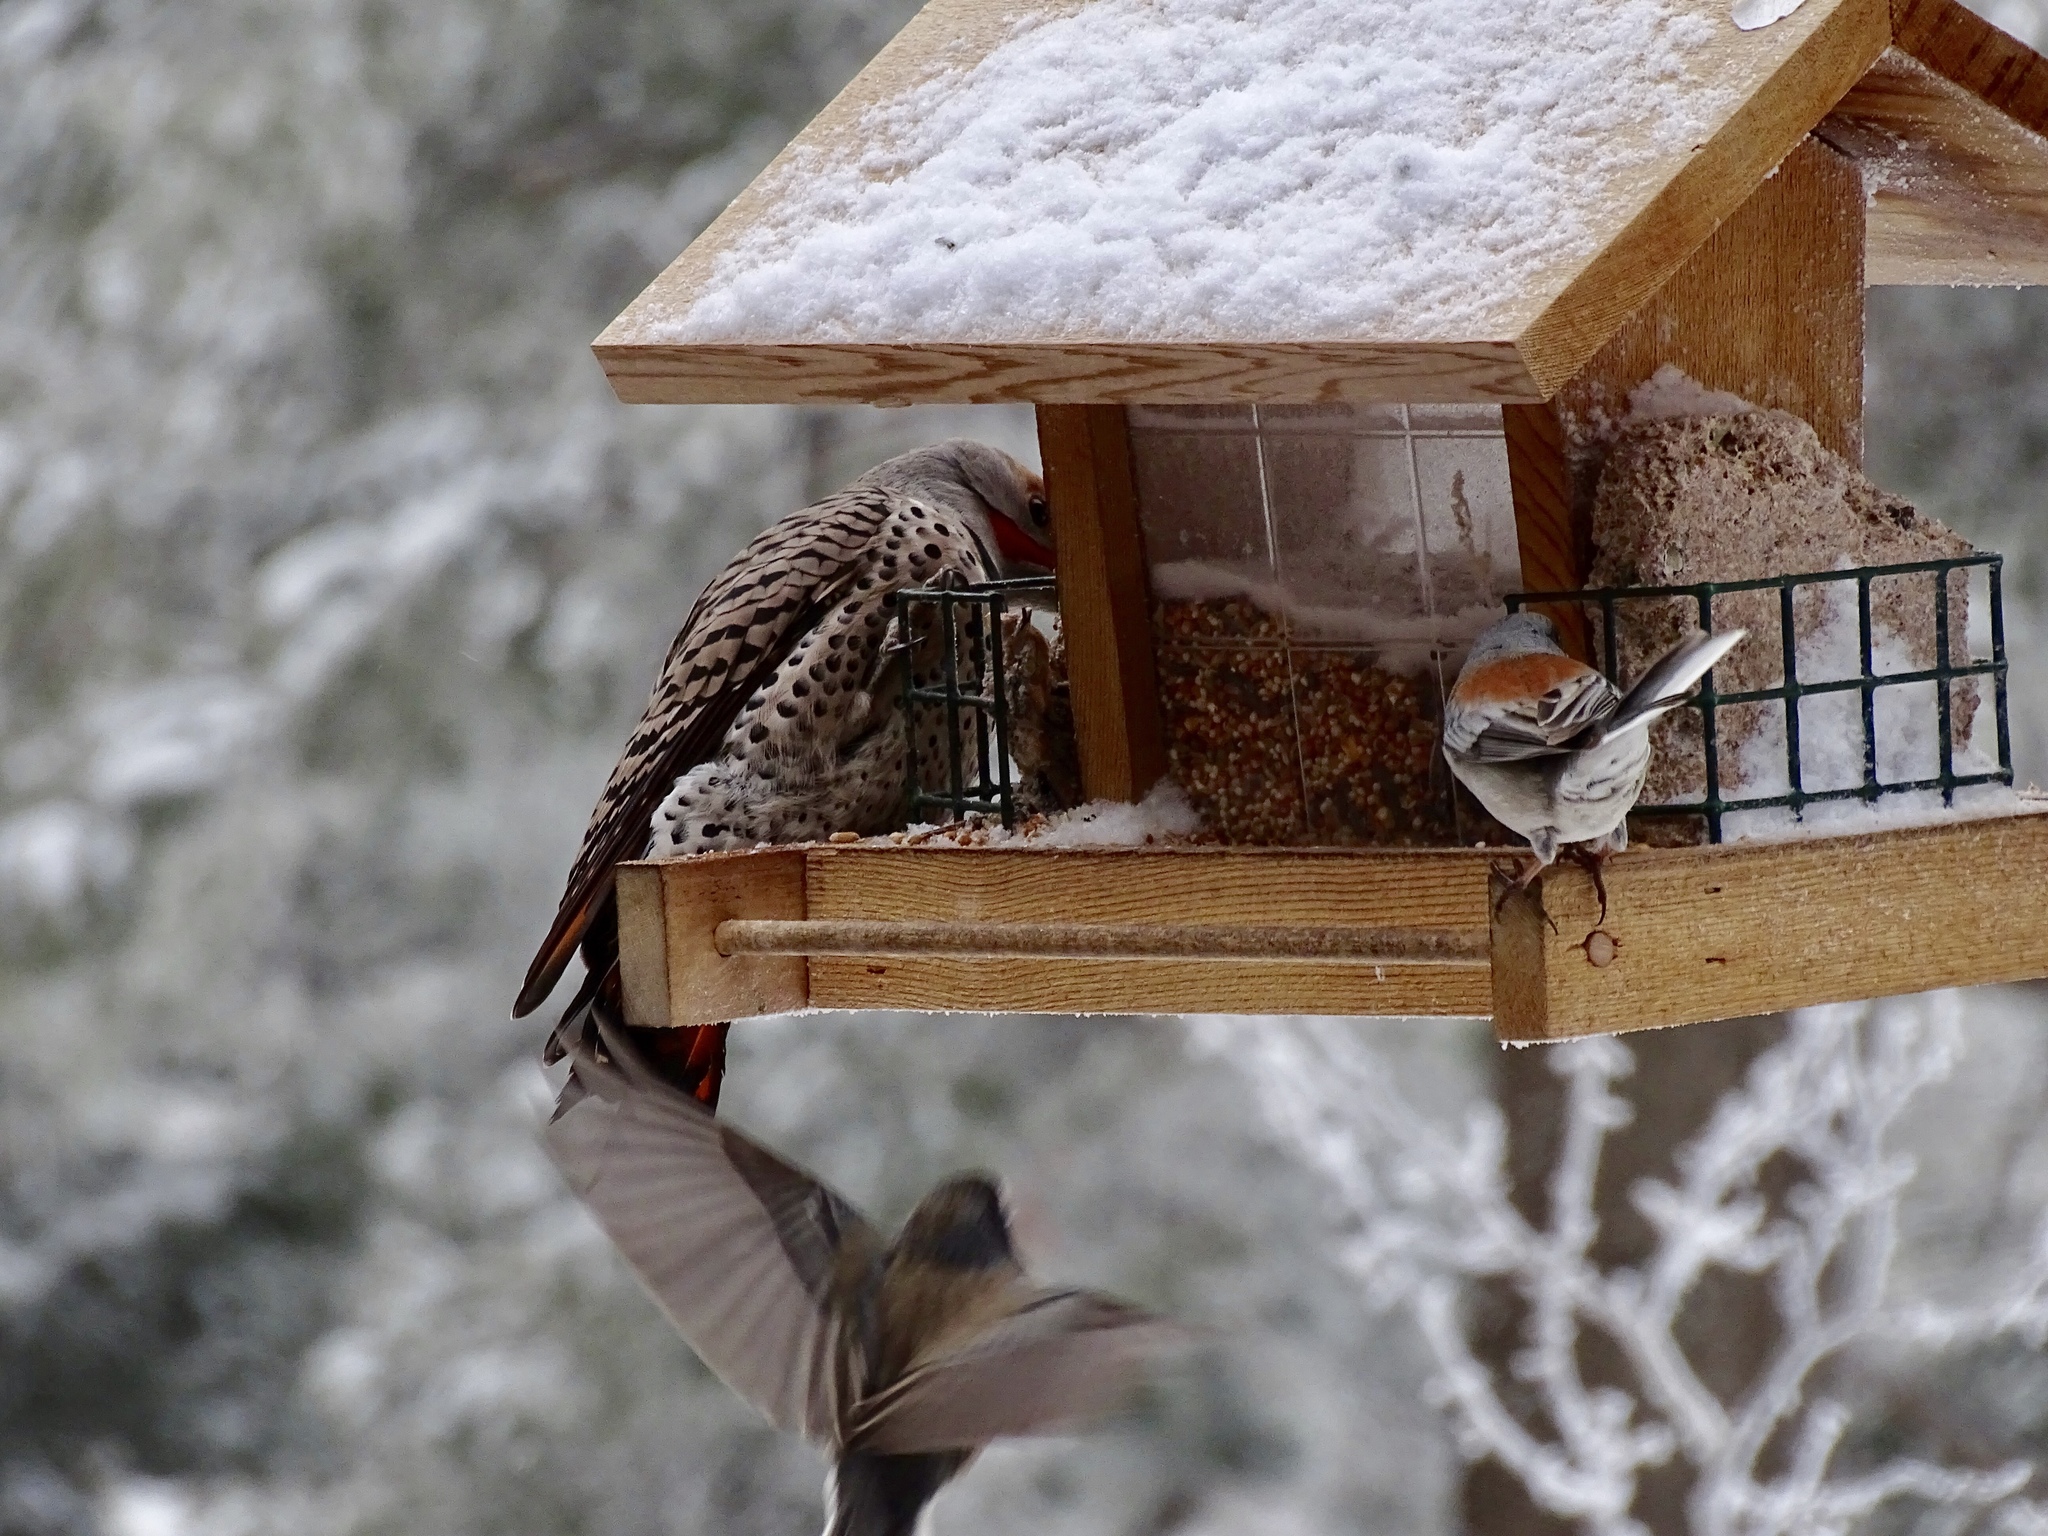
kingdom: Animalia
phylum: Chordata
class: Aves
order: Piciformes
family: Picidae
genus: Colaptes
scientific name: Colaptes auratus
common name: Northern flicker
